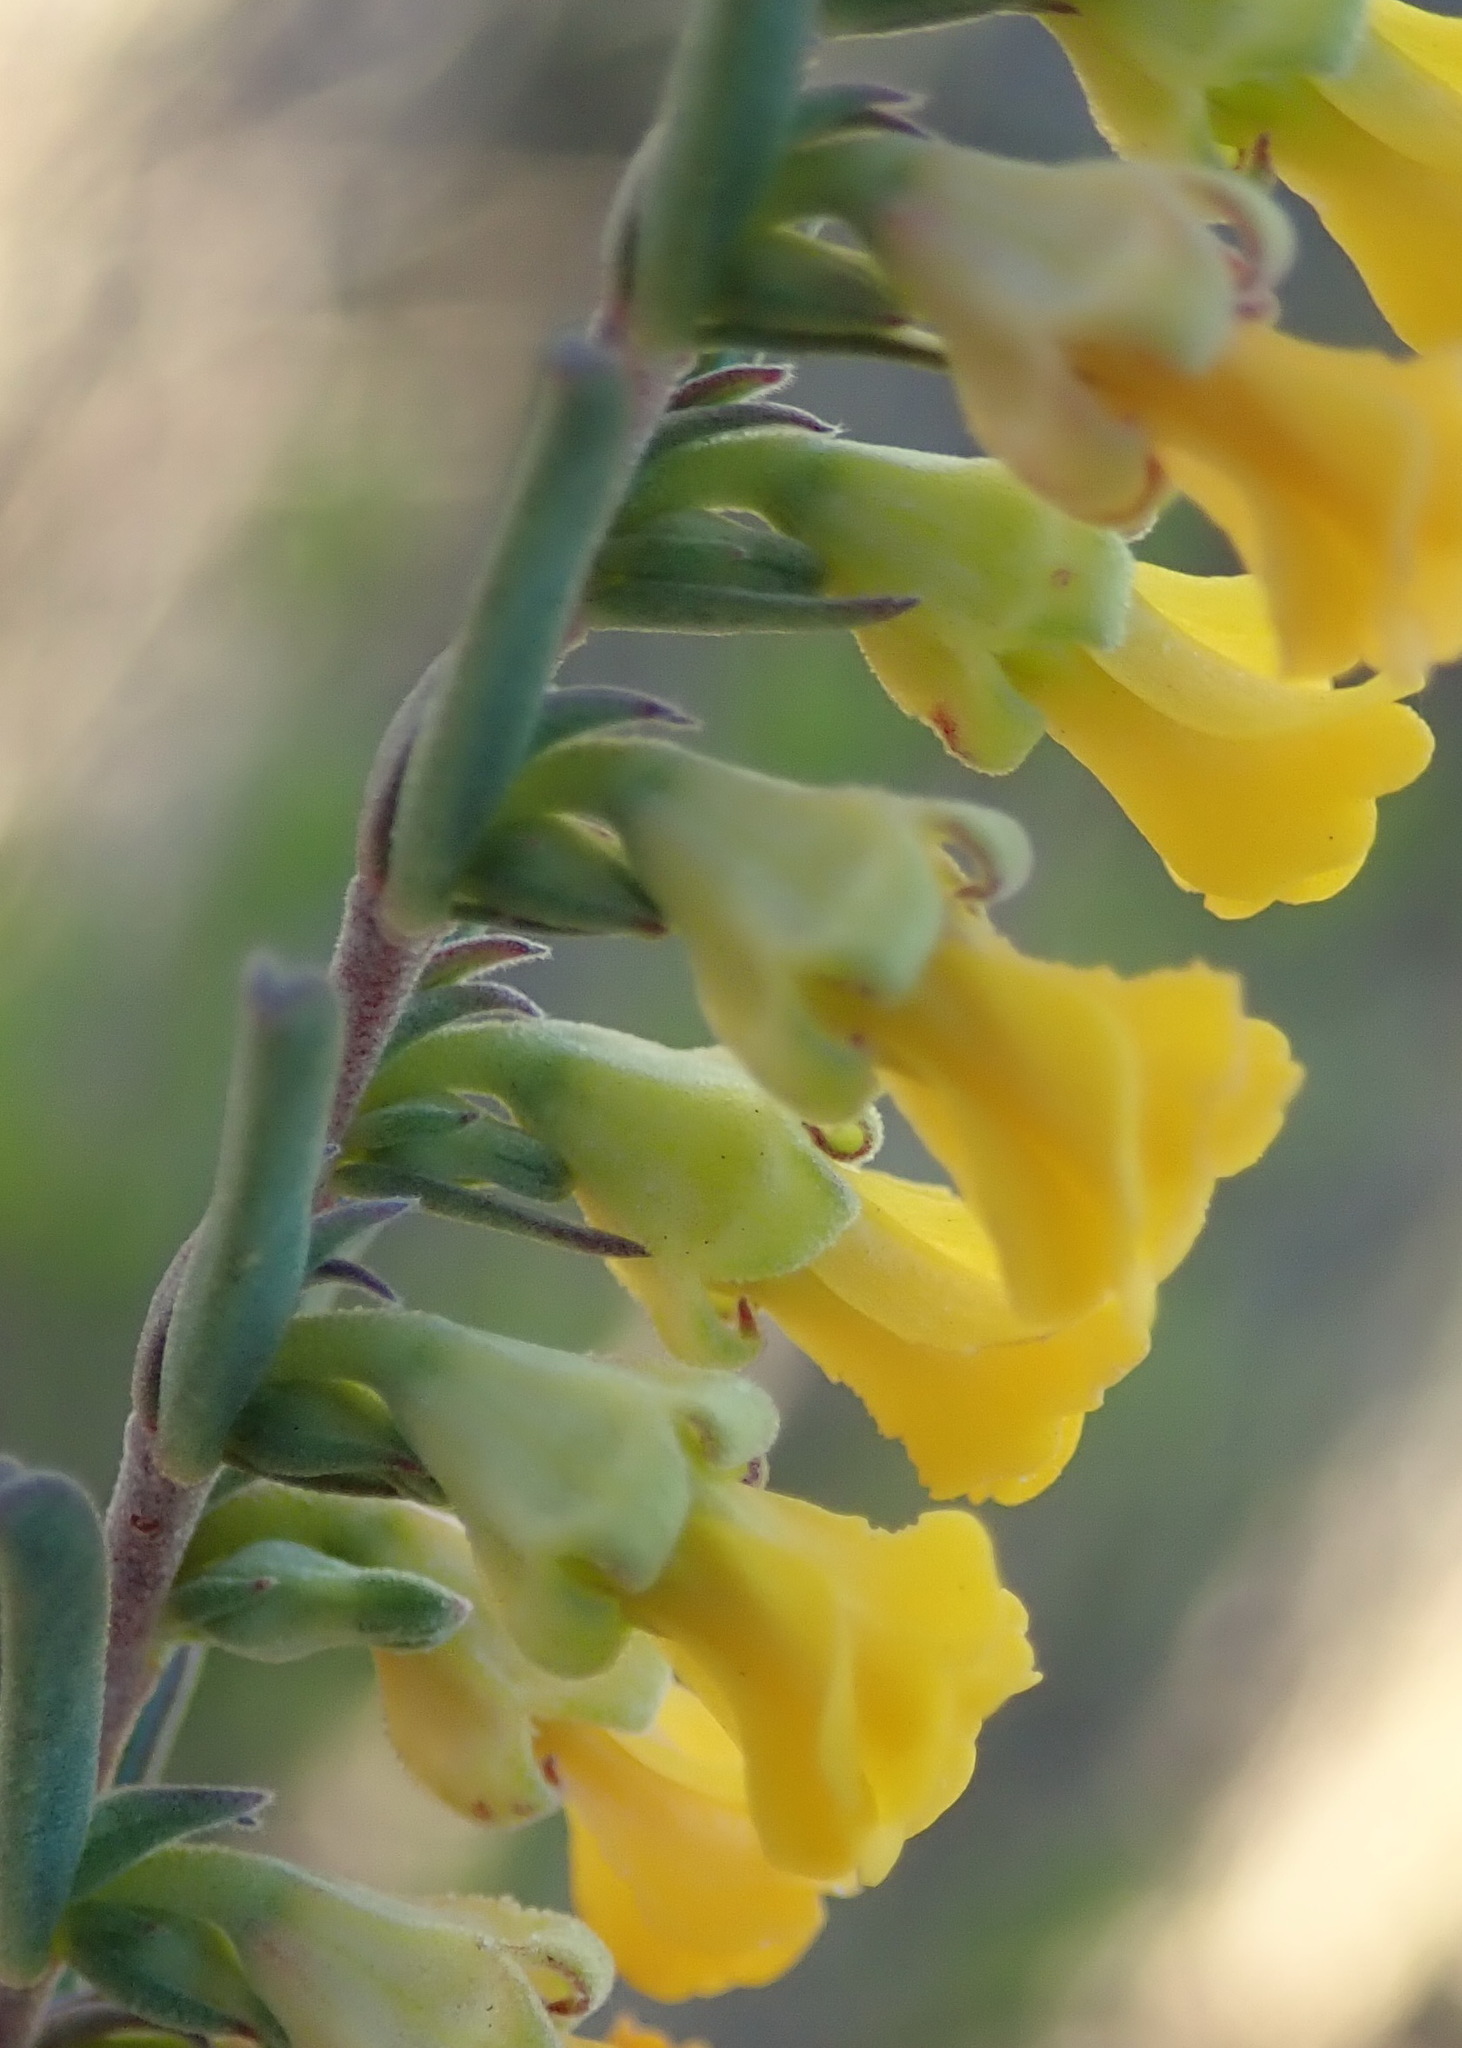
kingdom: Plantae
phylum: Tracheophyta
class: Magnoliopsida
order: Malvales
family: Malvaceae
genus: Hermannia
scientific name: Hermannia diversistipula
